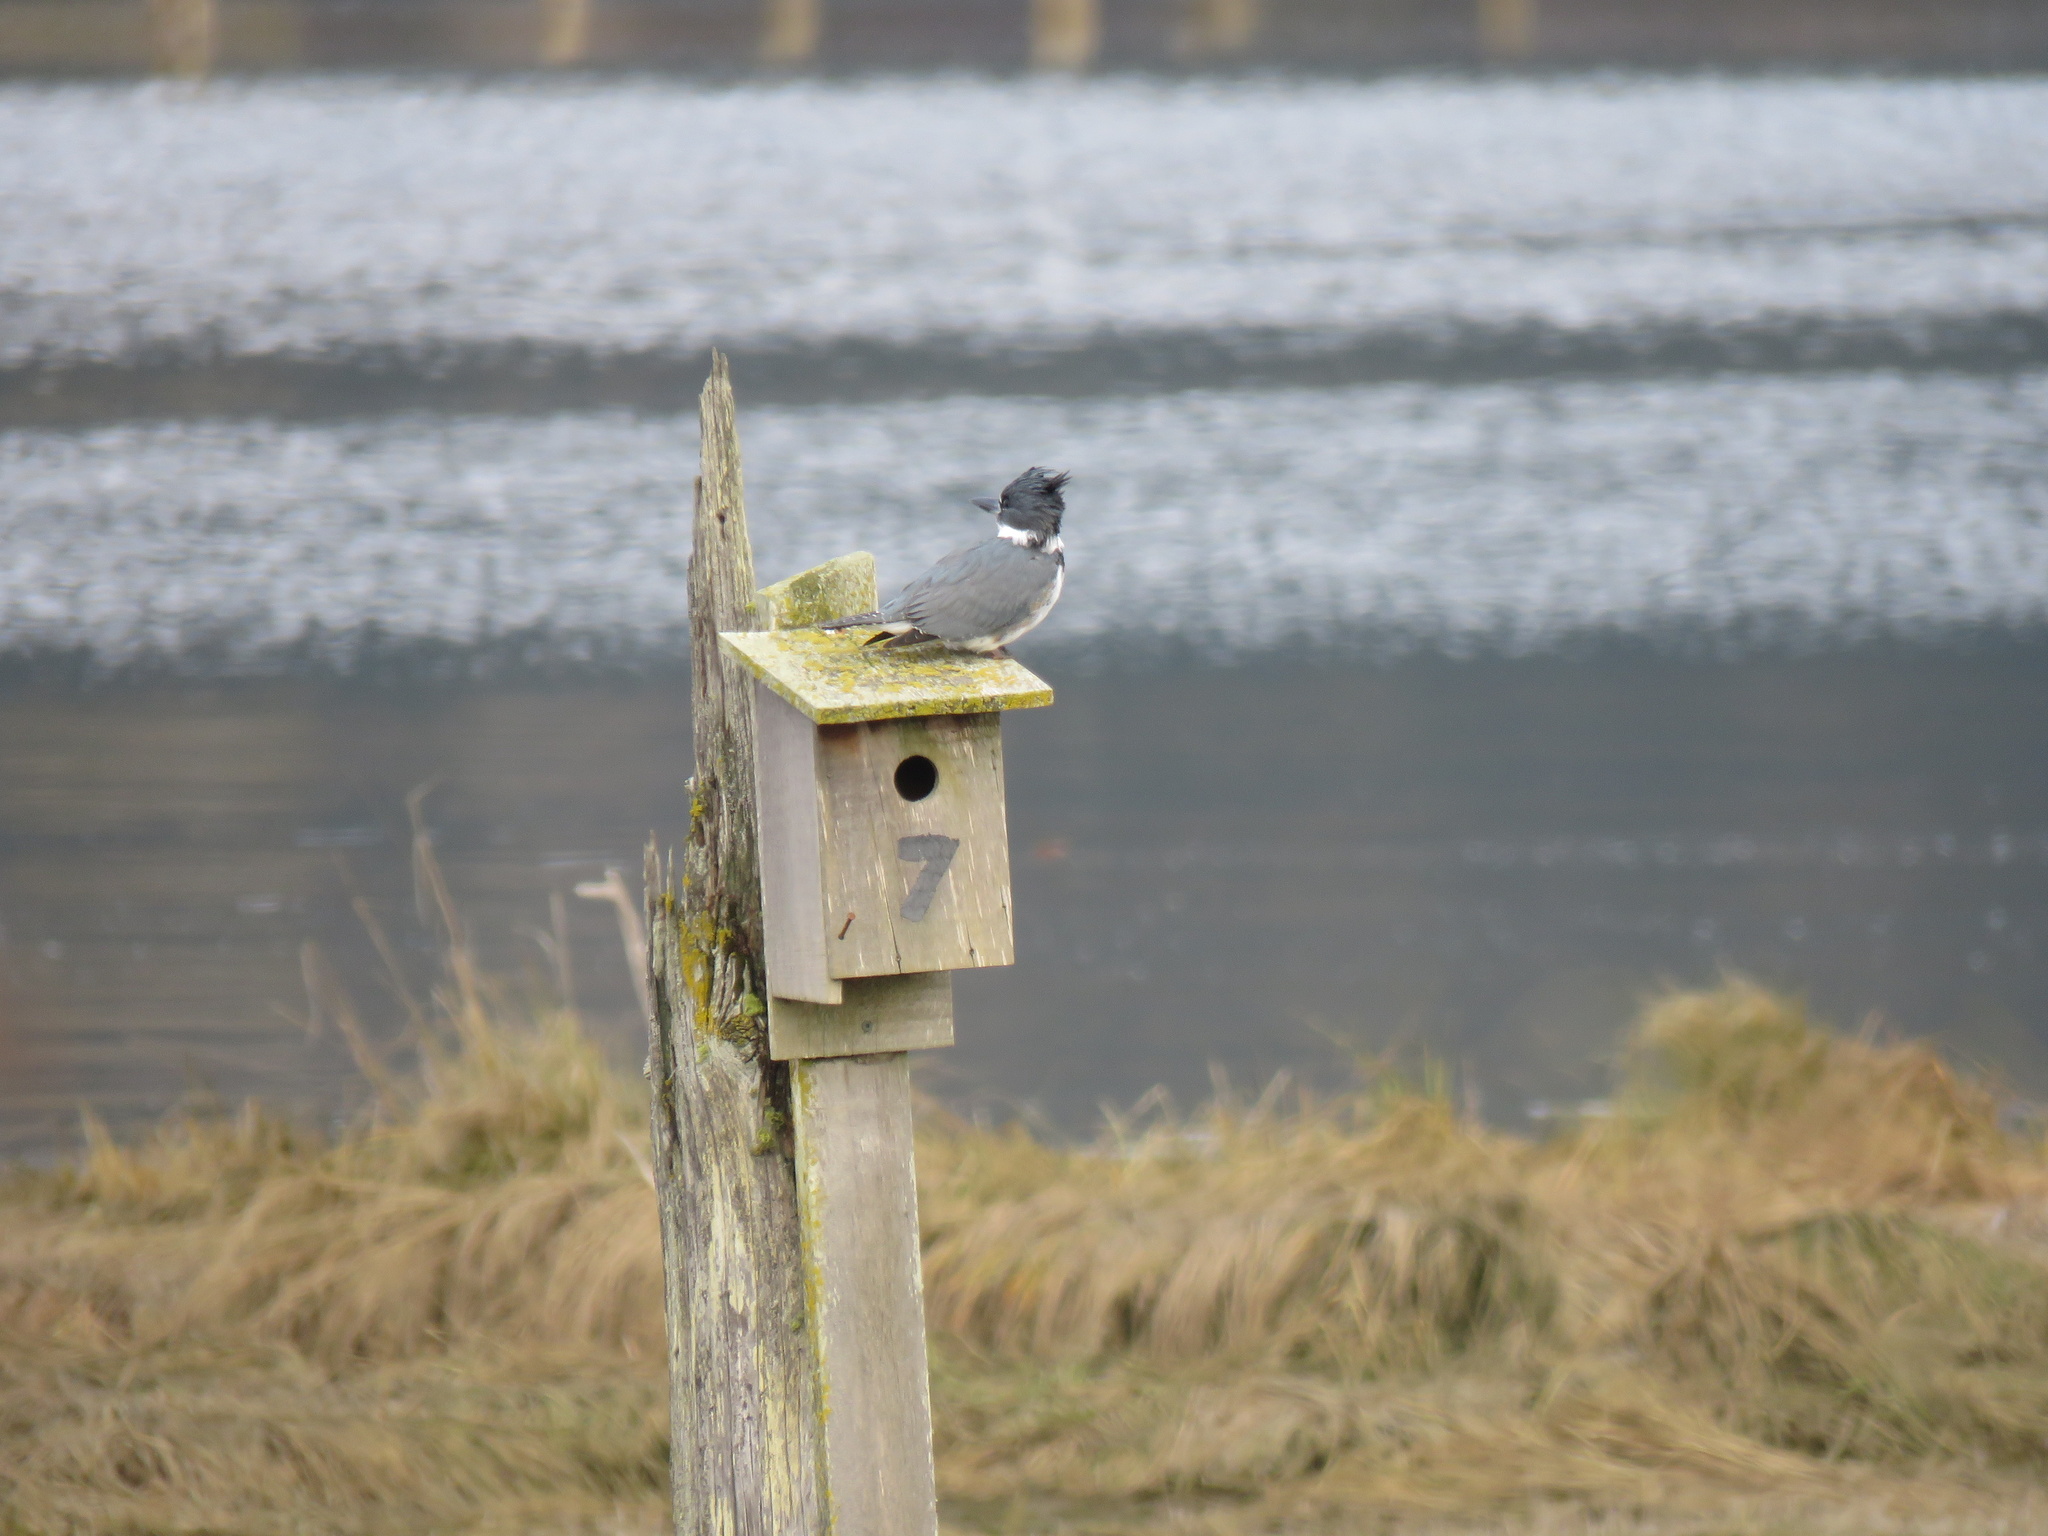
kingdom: Animalia
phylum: Chordata
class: Aves
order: Coraciiformes
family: Alcedinidae
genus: Megaceryle
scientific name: Megaceryle alcyon
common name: Belted kingfisher
